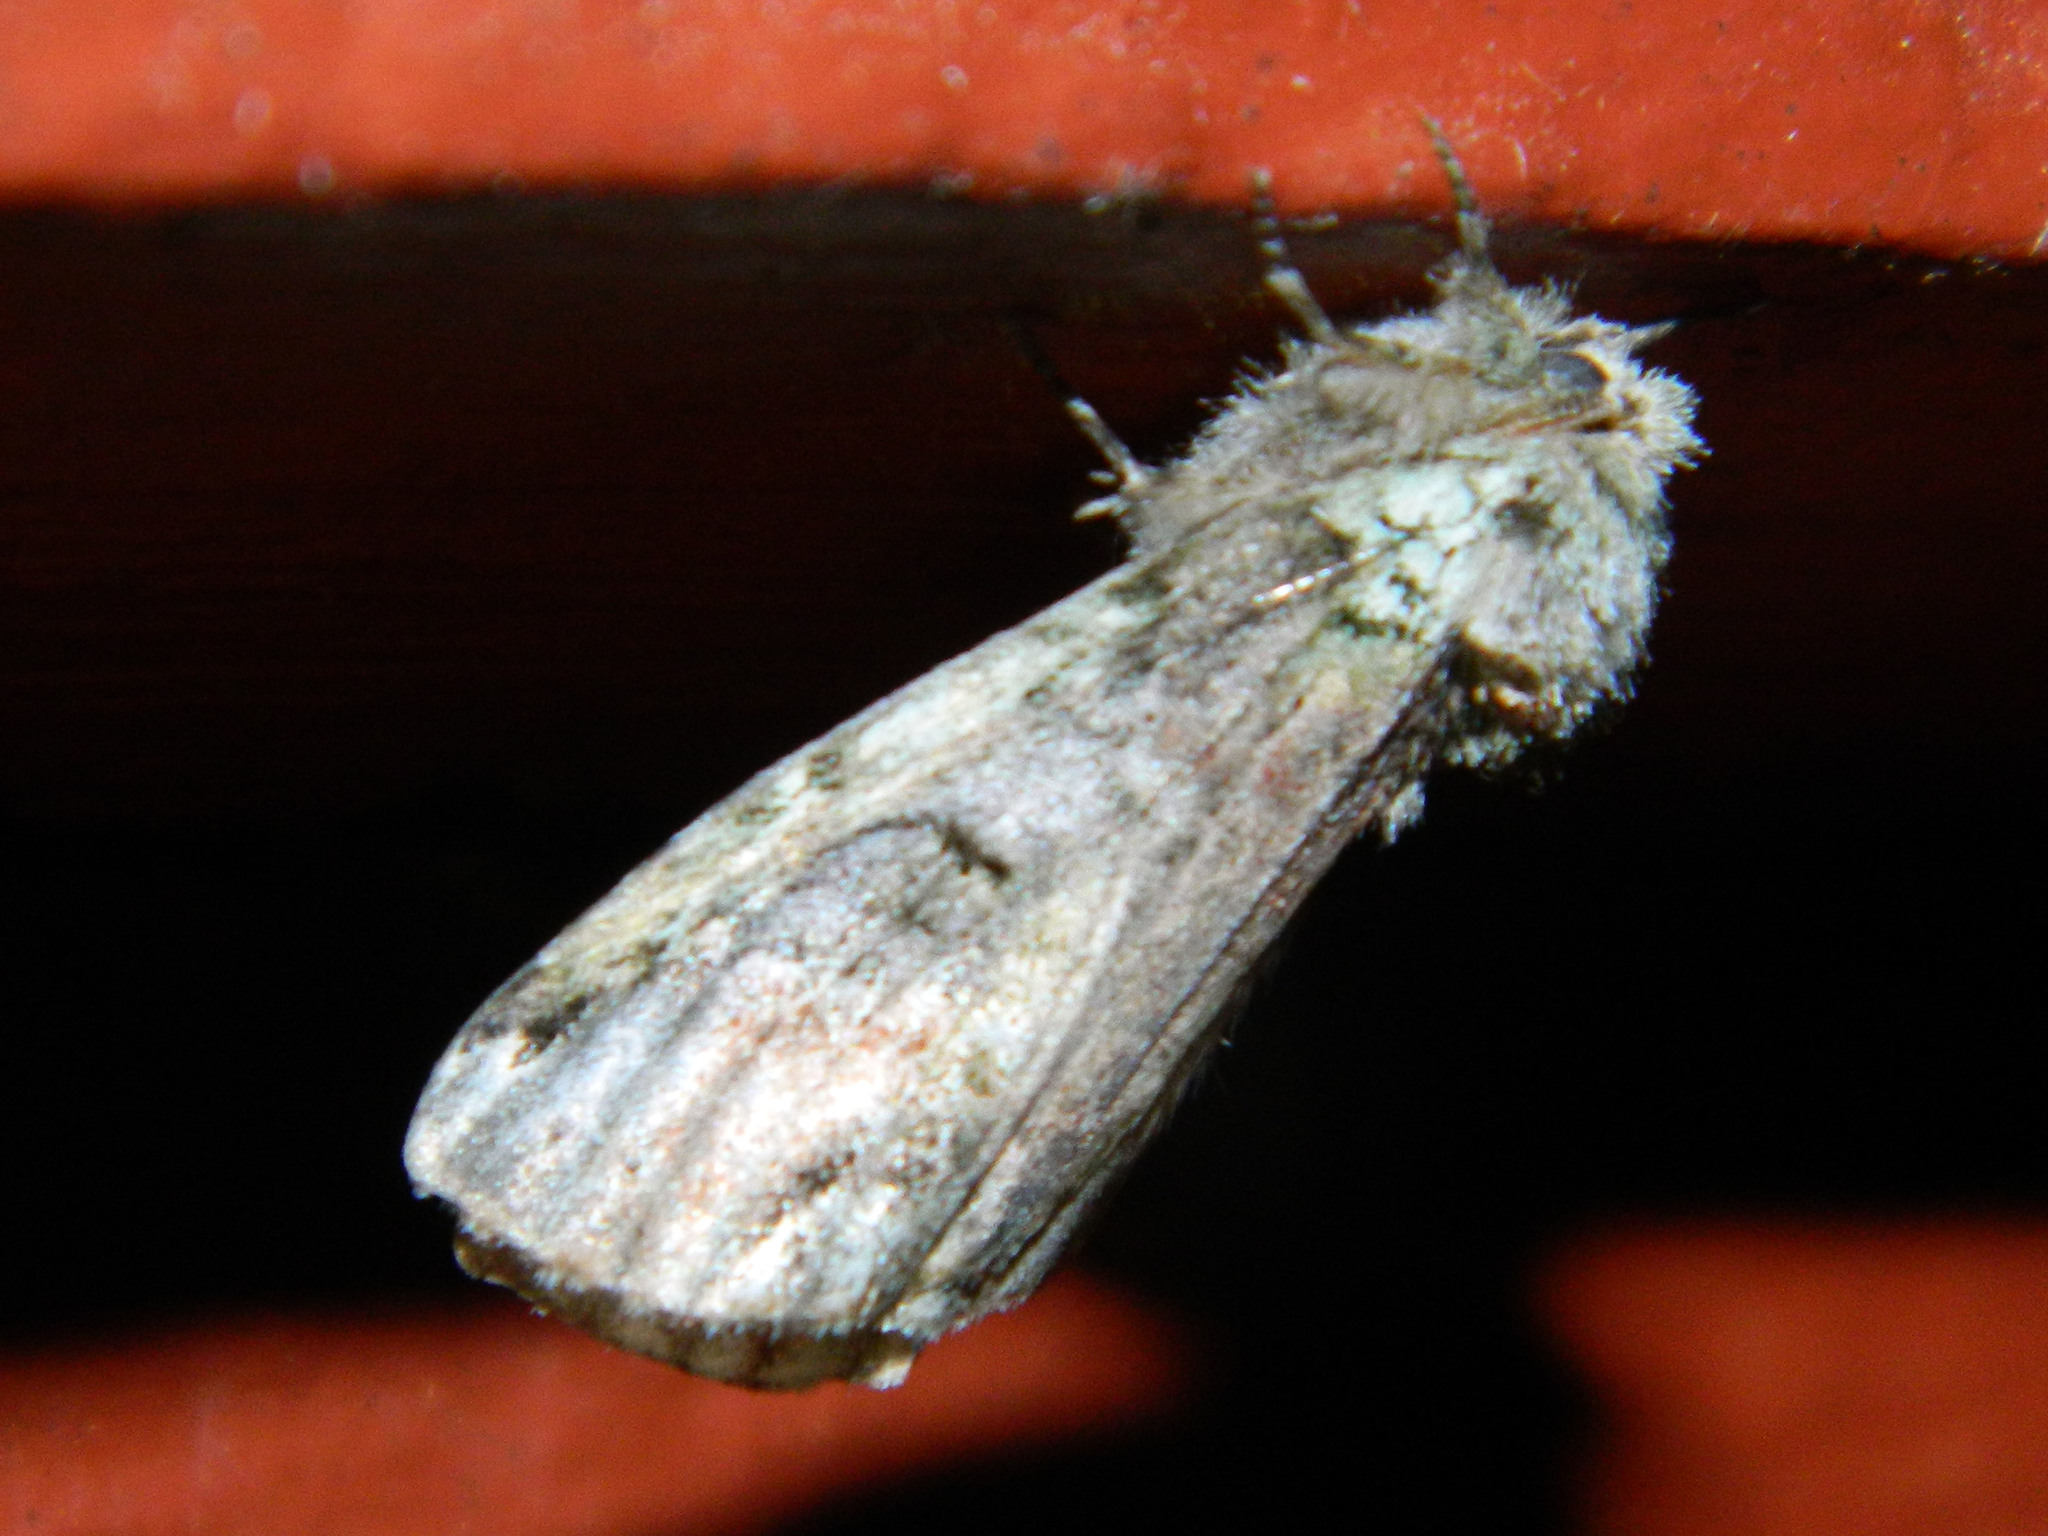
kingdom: Animalia
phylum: Arthropoda
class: Insecta
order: Lepidoptera
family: Notodontidae
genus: Schizura
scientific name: Schizura
